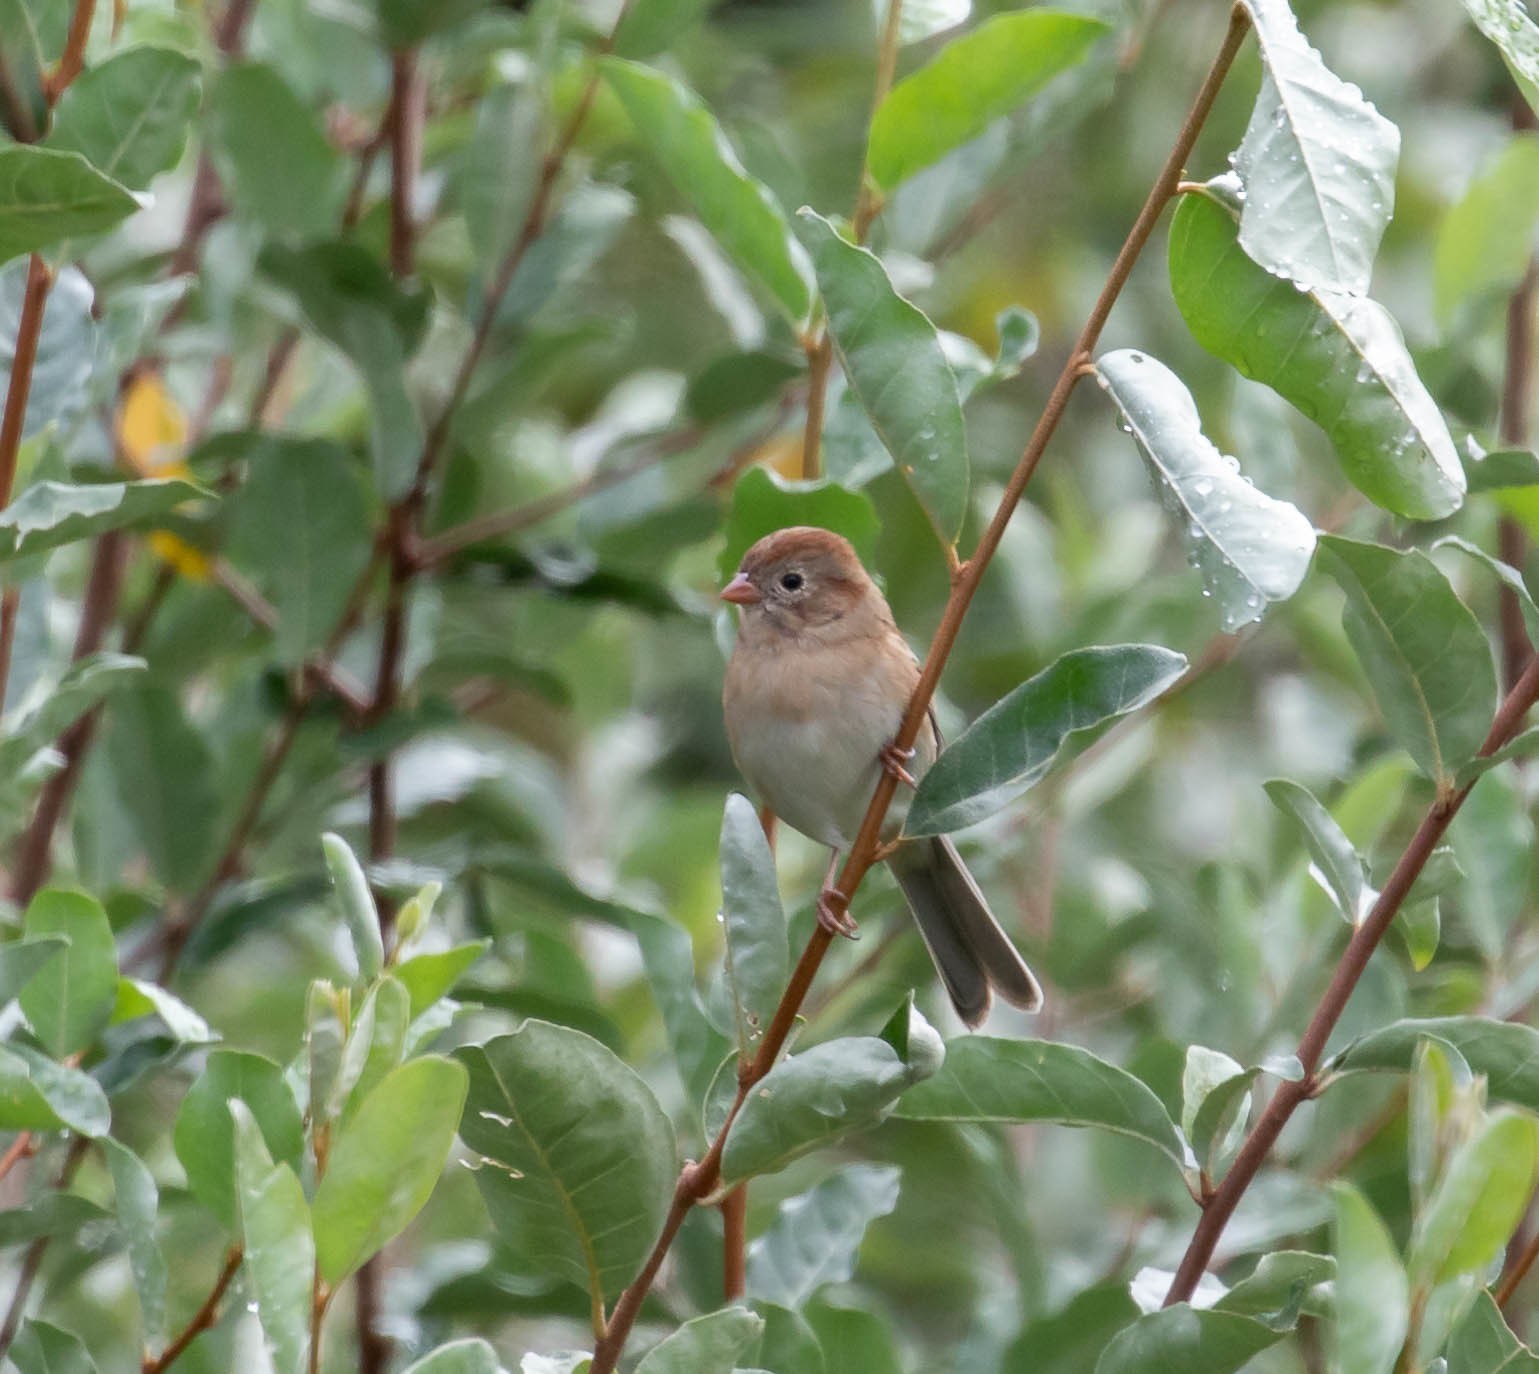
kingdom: Animalia
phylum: Chordata
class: Aves
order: Passeriformes
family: Passerellidae
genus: Spizella
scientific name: Spizella pusilla
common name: Field sparrow
